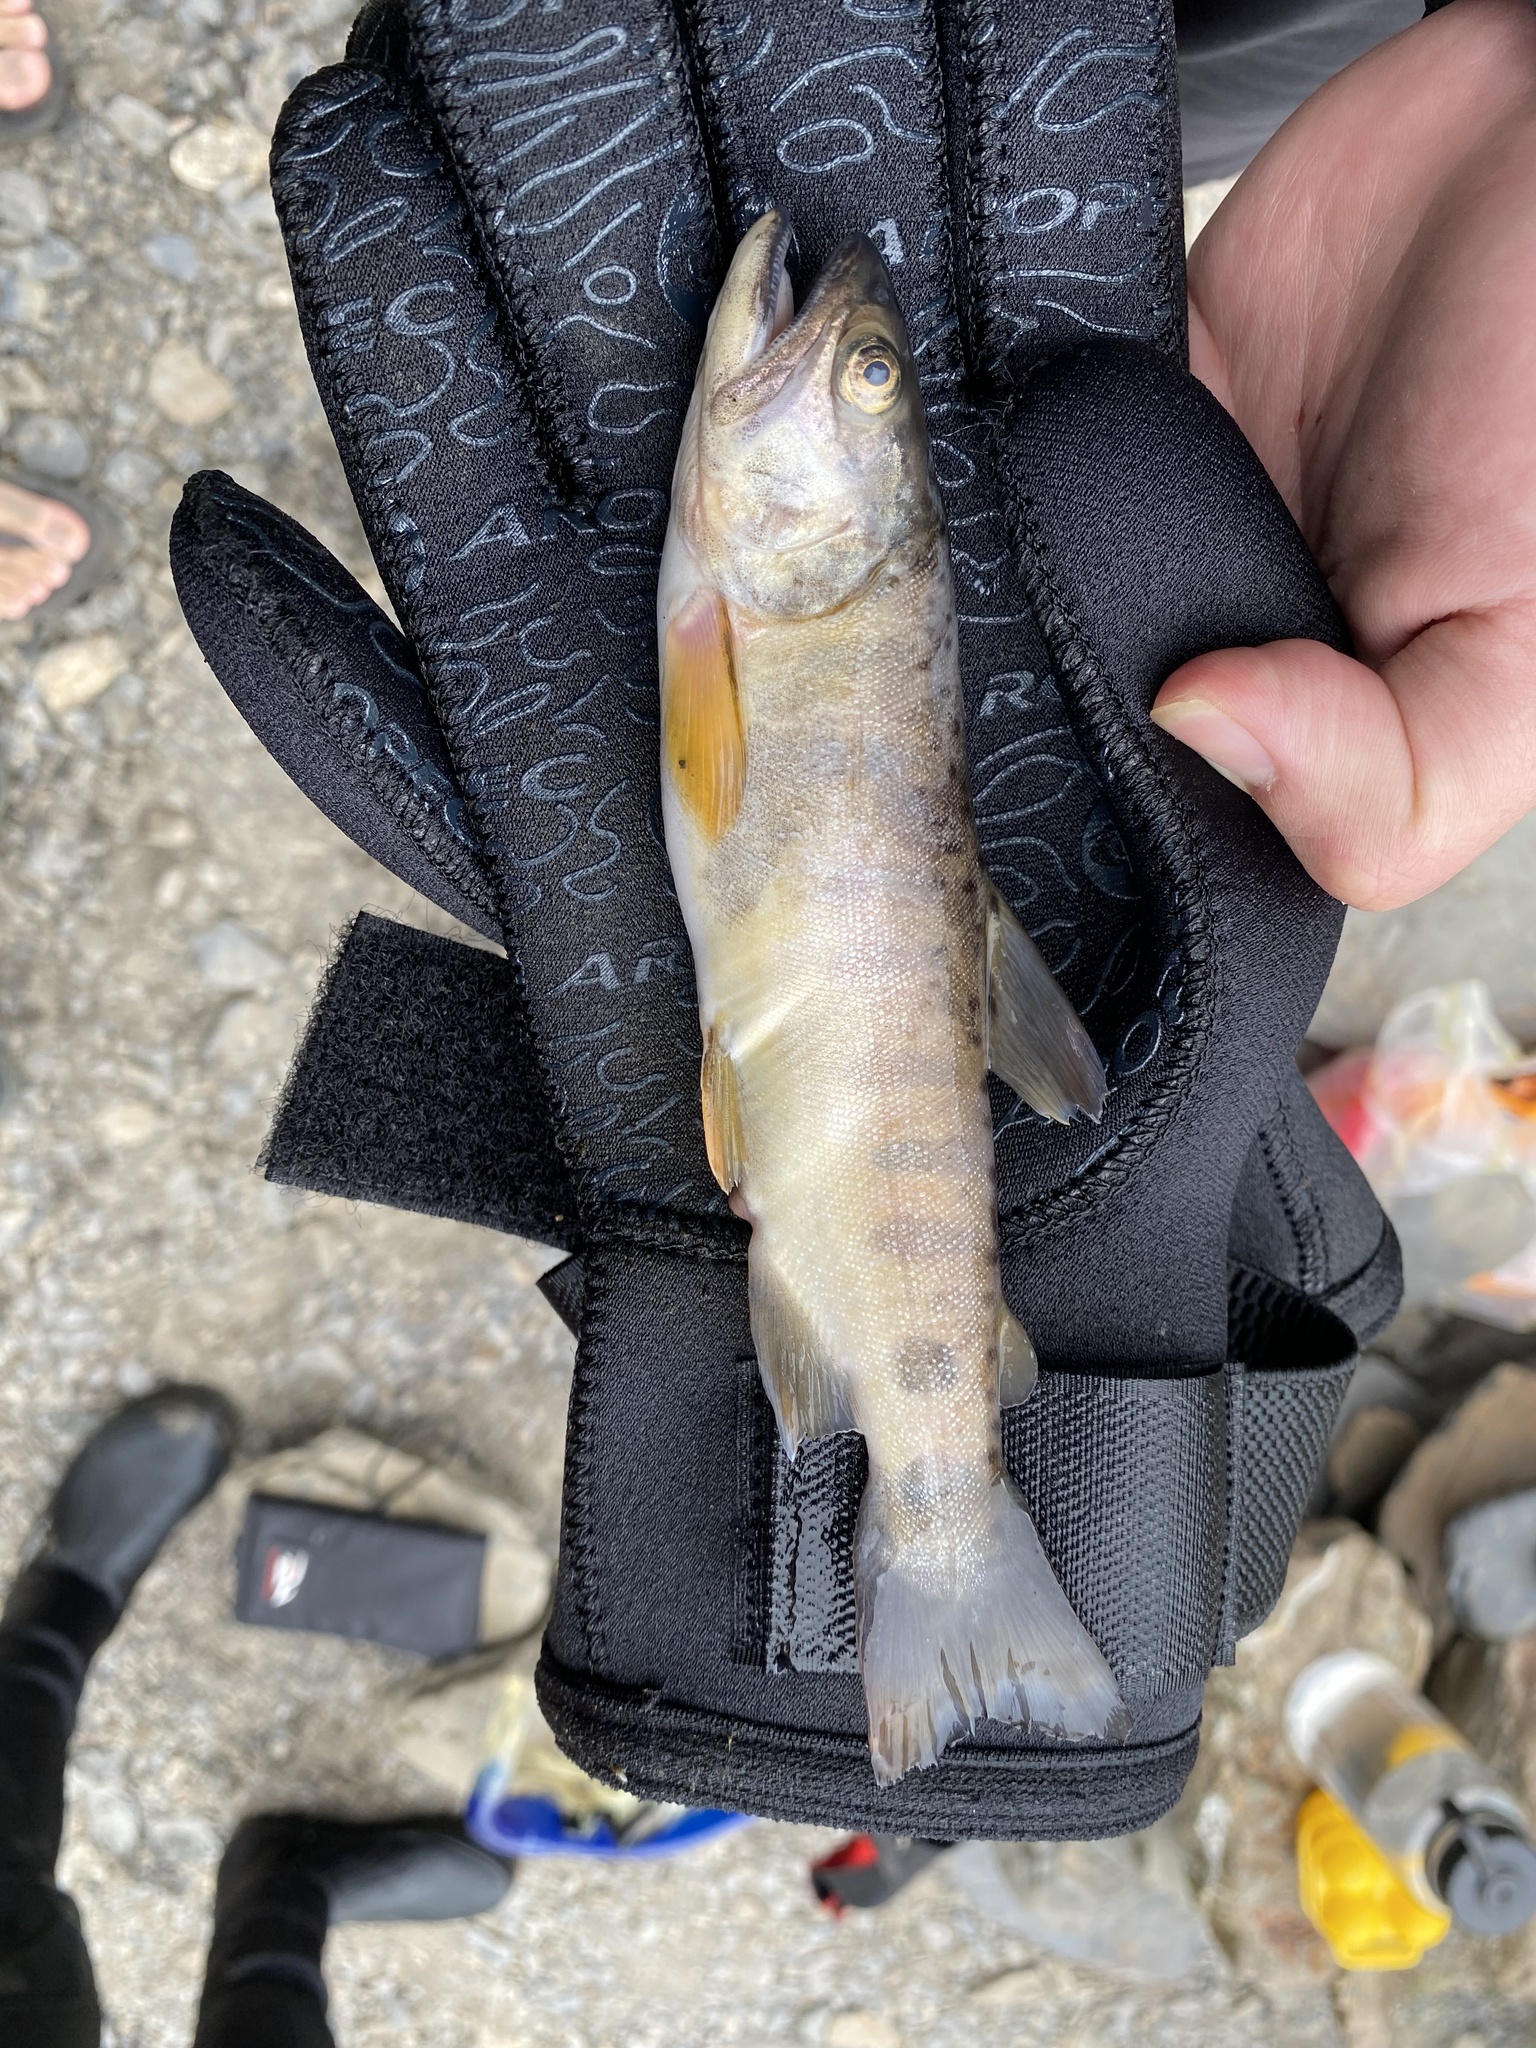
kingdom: Animalia
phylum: Chordata
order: Salmoniformes
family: Salmonidae
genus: Oncorhynchus
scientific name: Oncorhynchus formosanus
